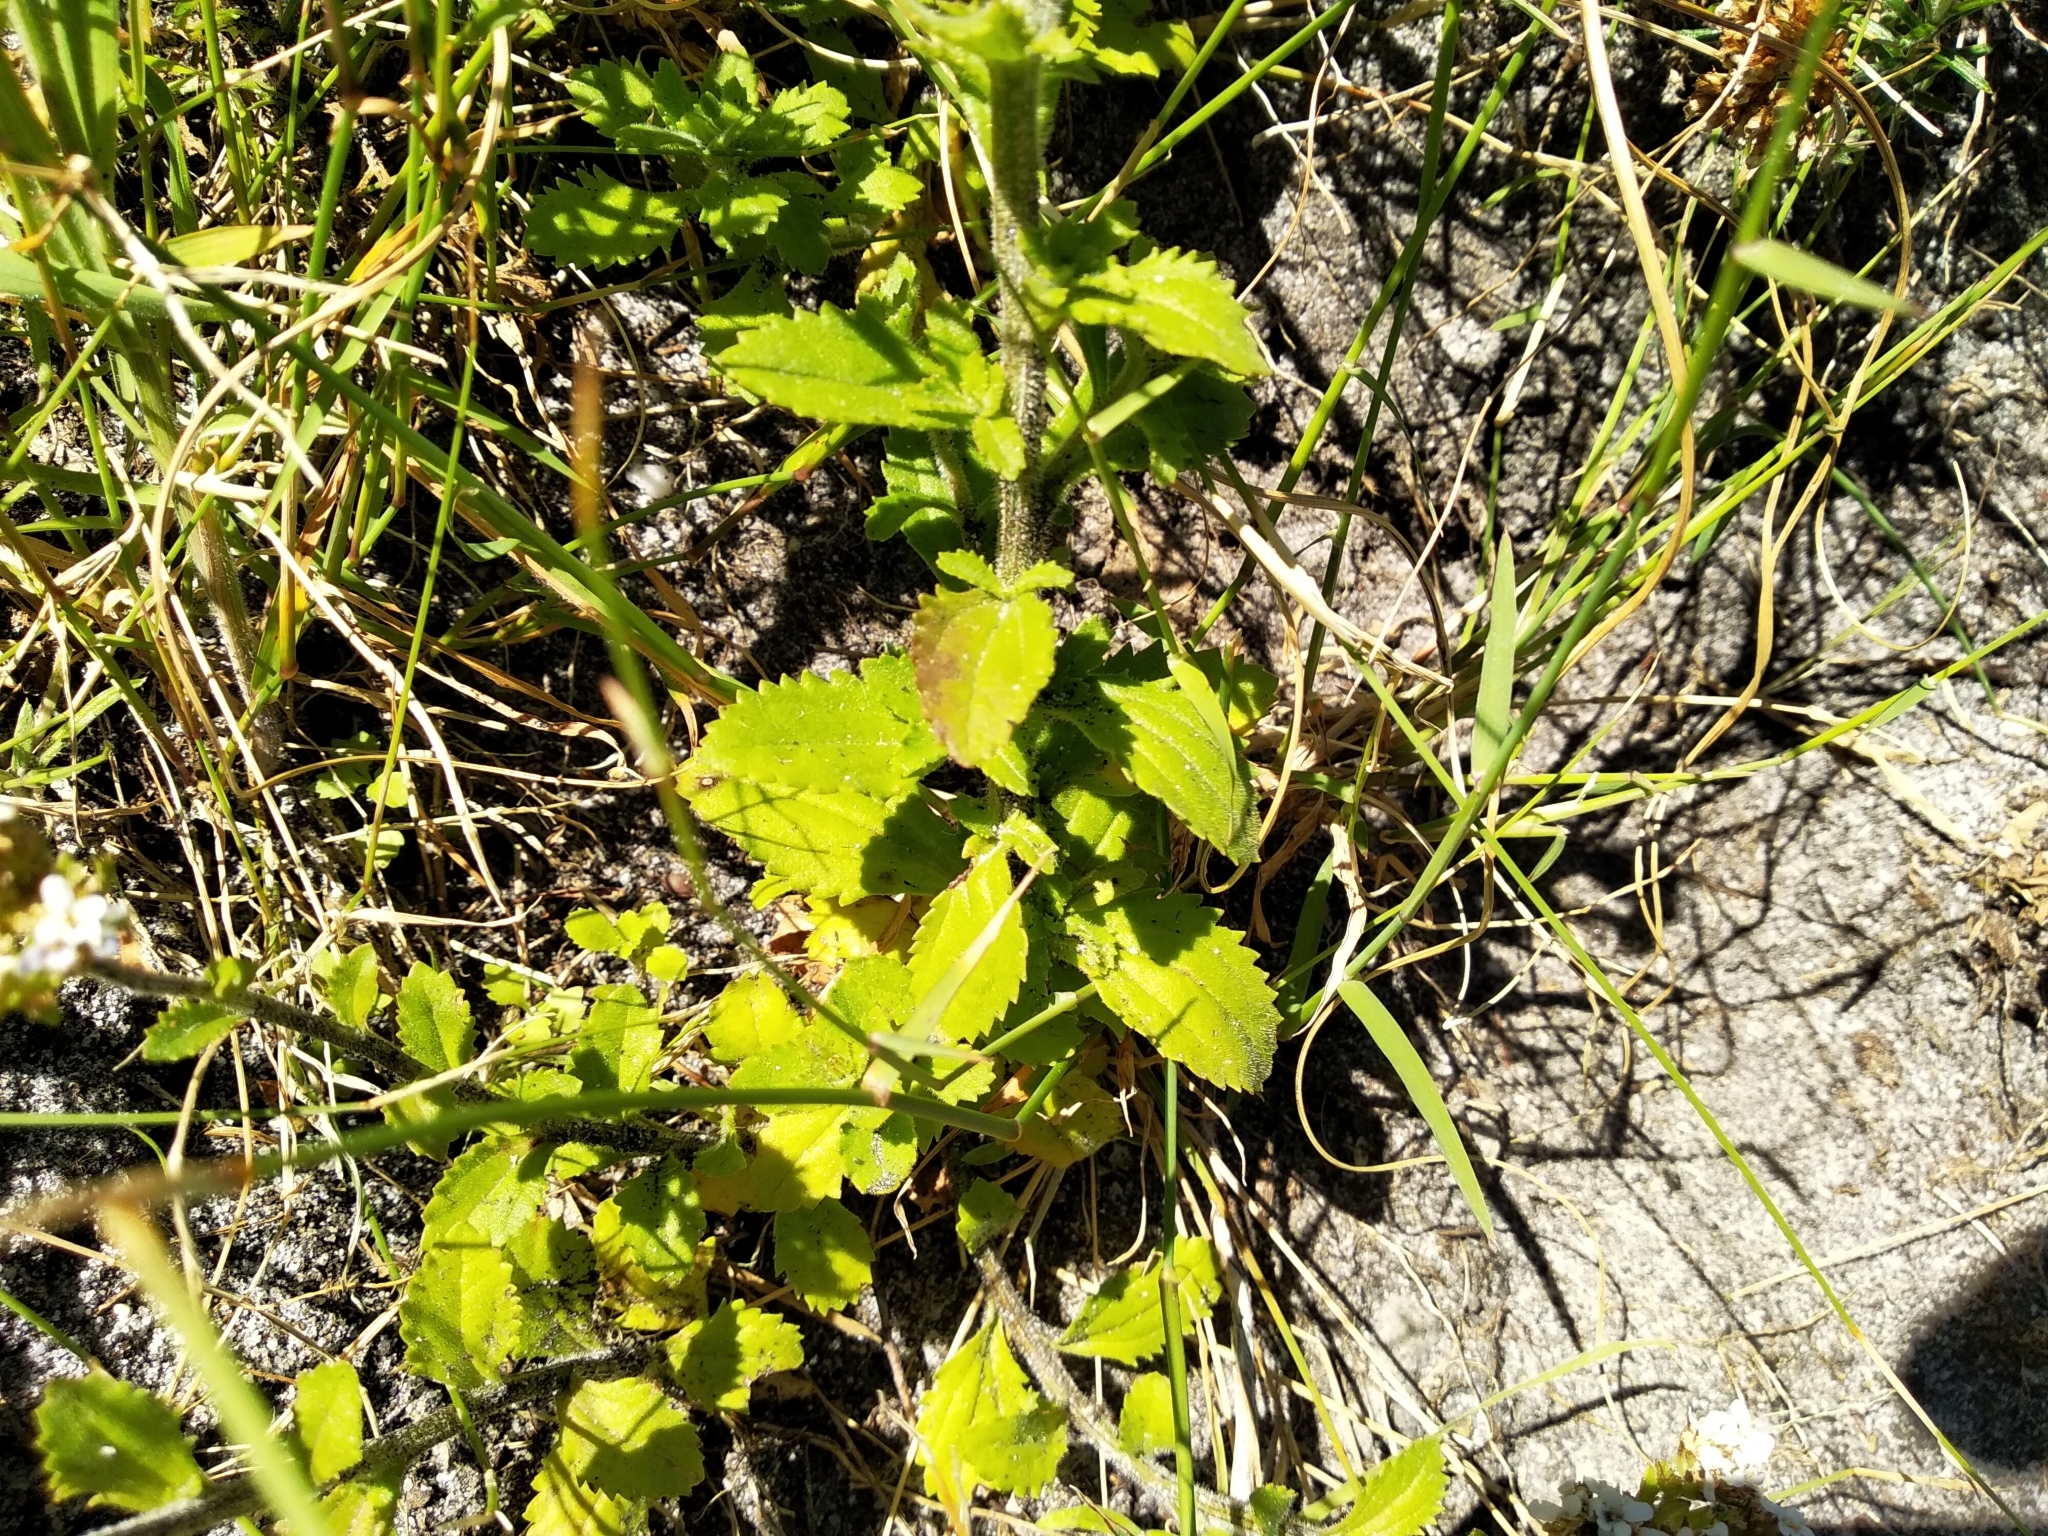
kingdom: Plantae
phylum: Tracheophyta
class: Magnoliopsida
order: Lamiales
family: Scrophulariaceae
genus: Pseudoselago
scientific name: Pseudoselago peninsulae
